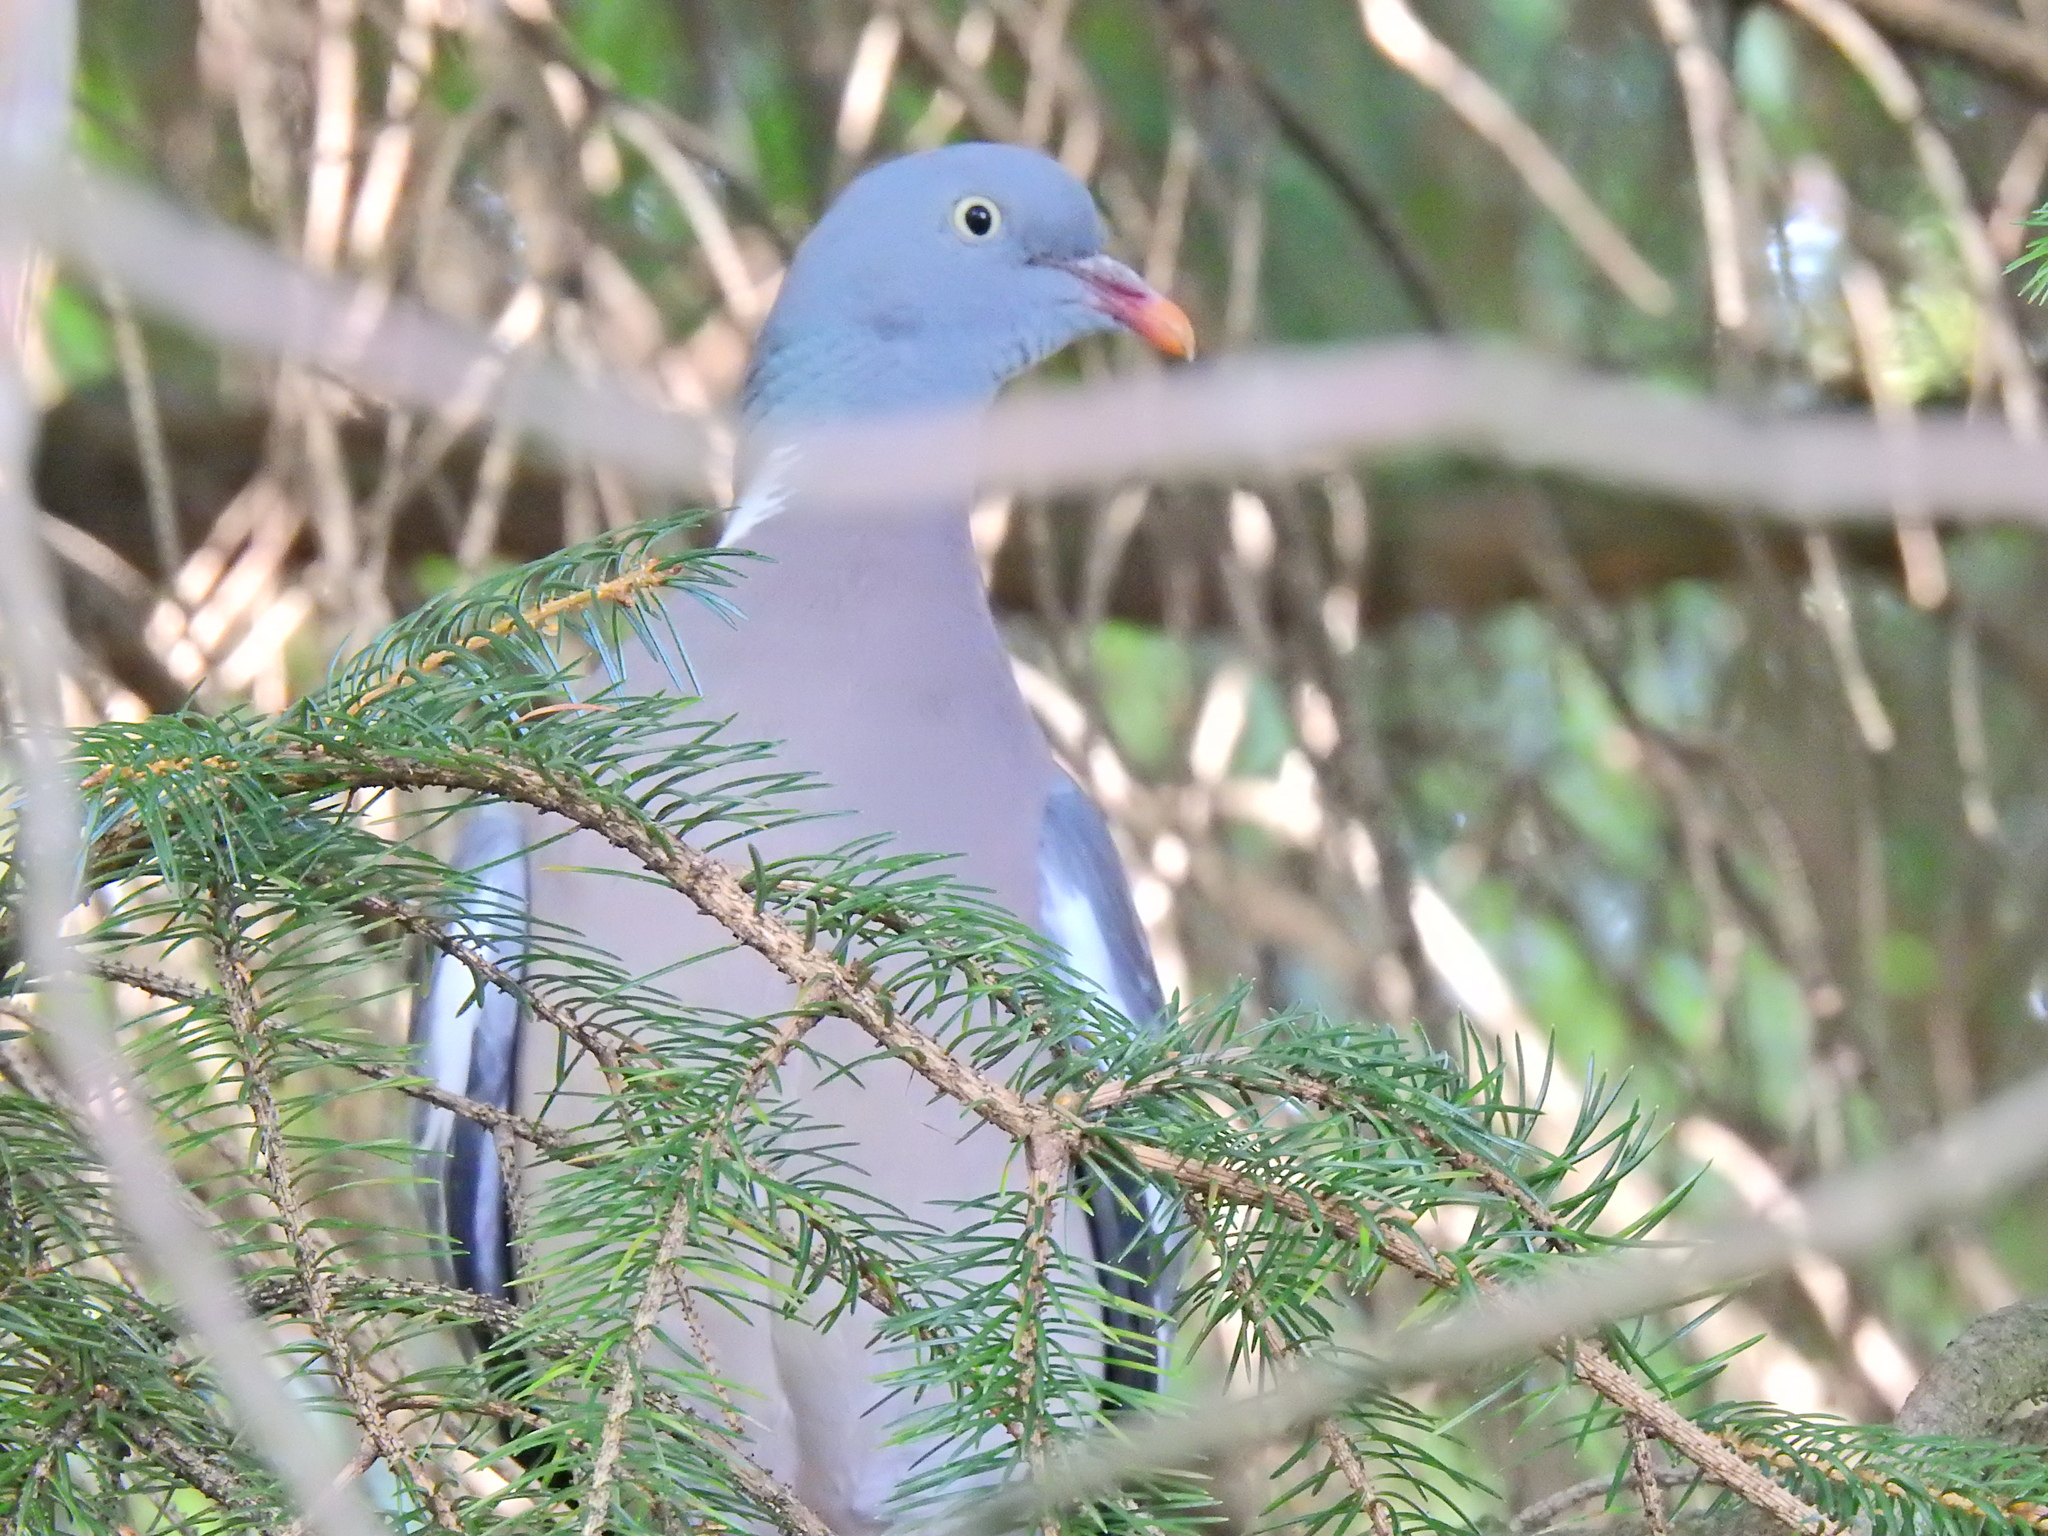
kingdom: Animalia
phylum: Chordata
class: Aves
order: Columbiformes
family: Columbidae
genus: Columba
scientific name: Columba palumbus
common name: Common wood pigeon
